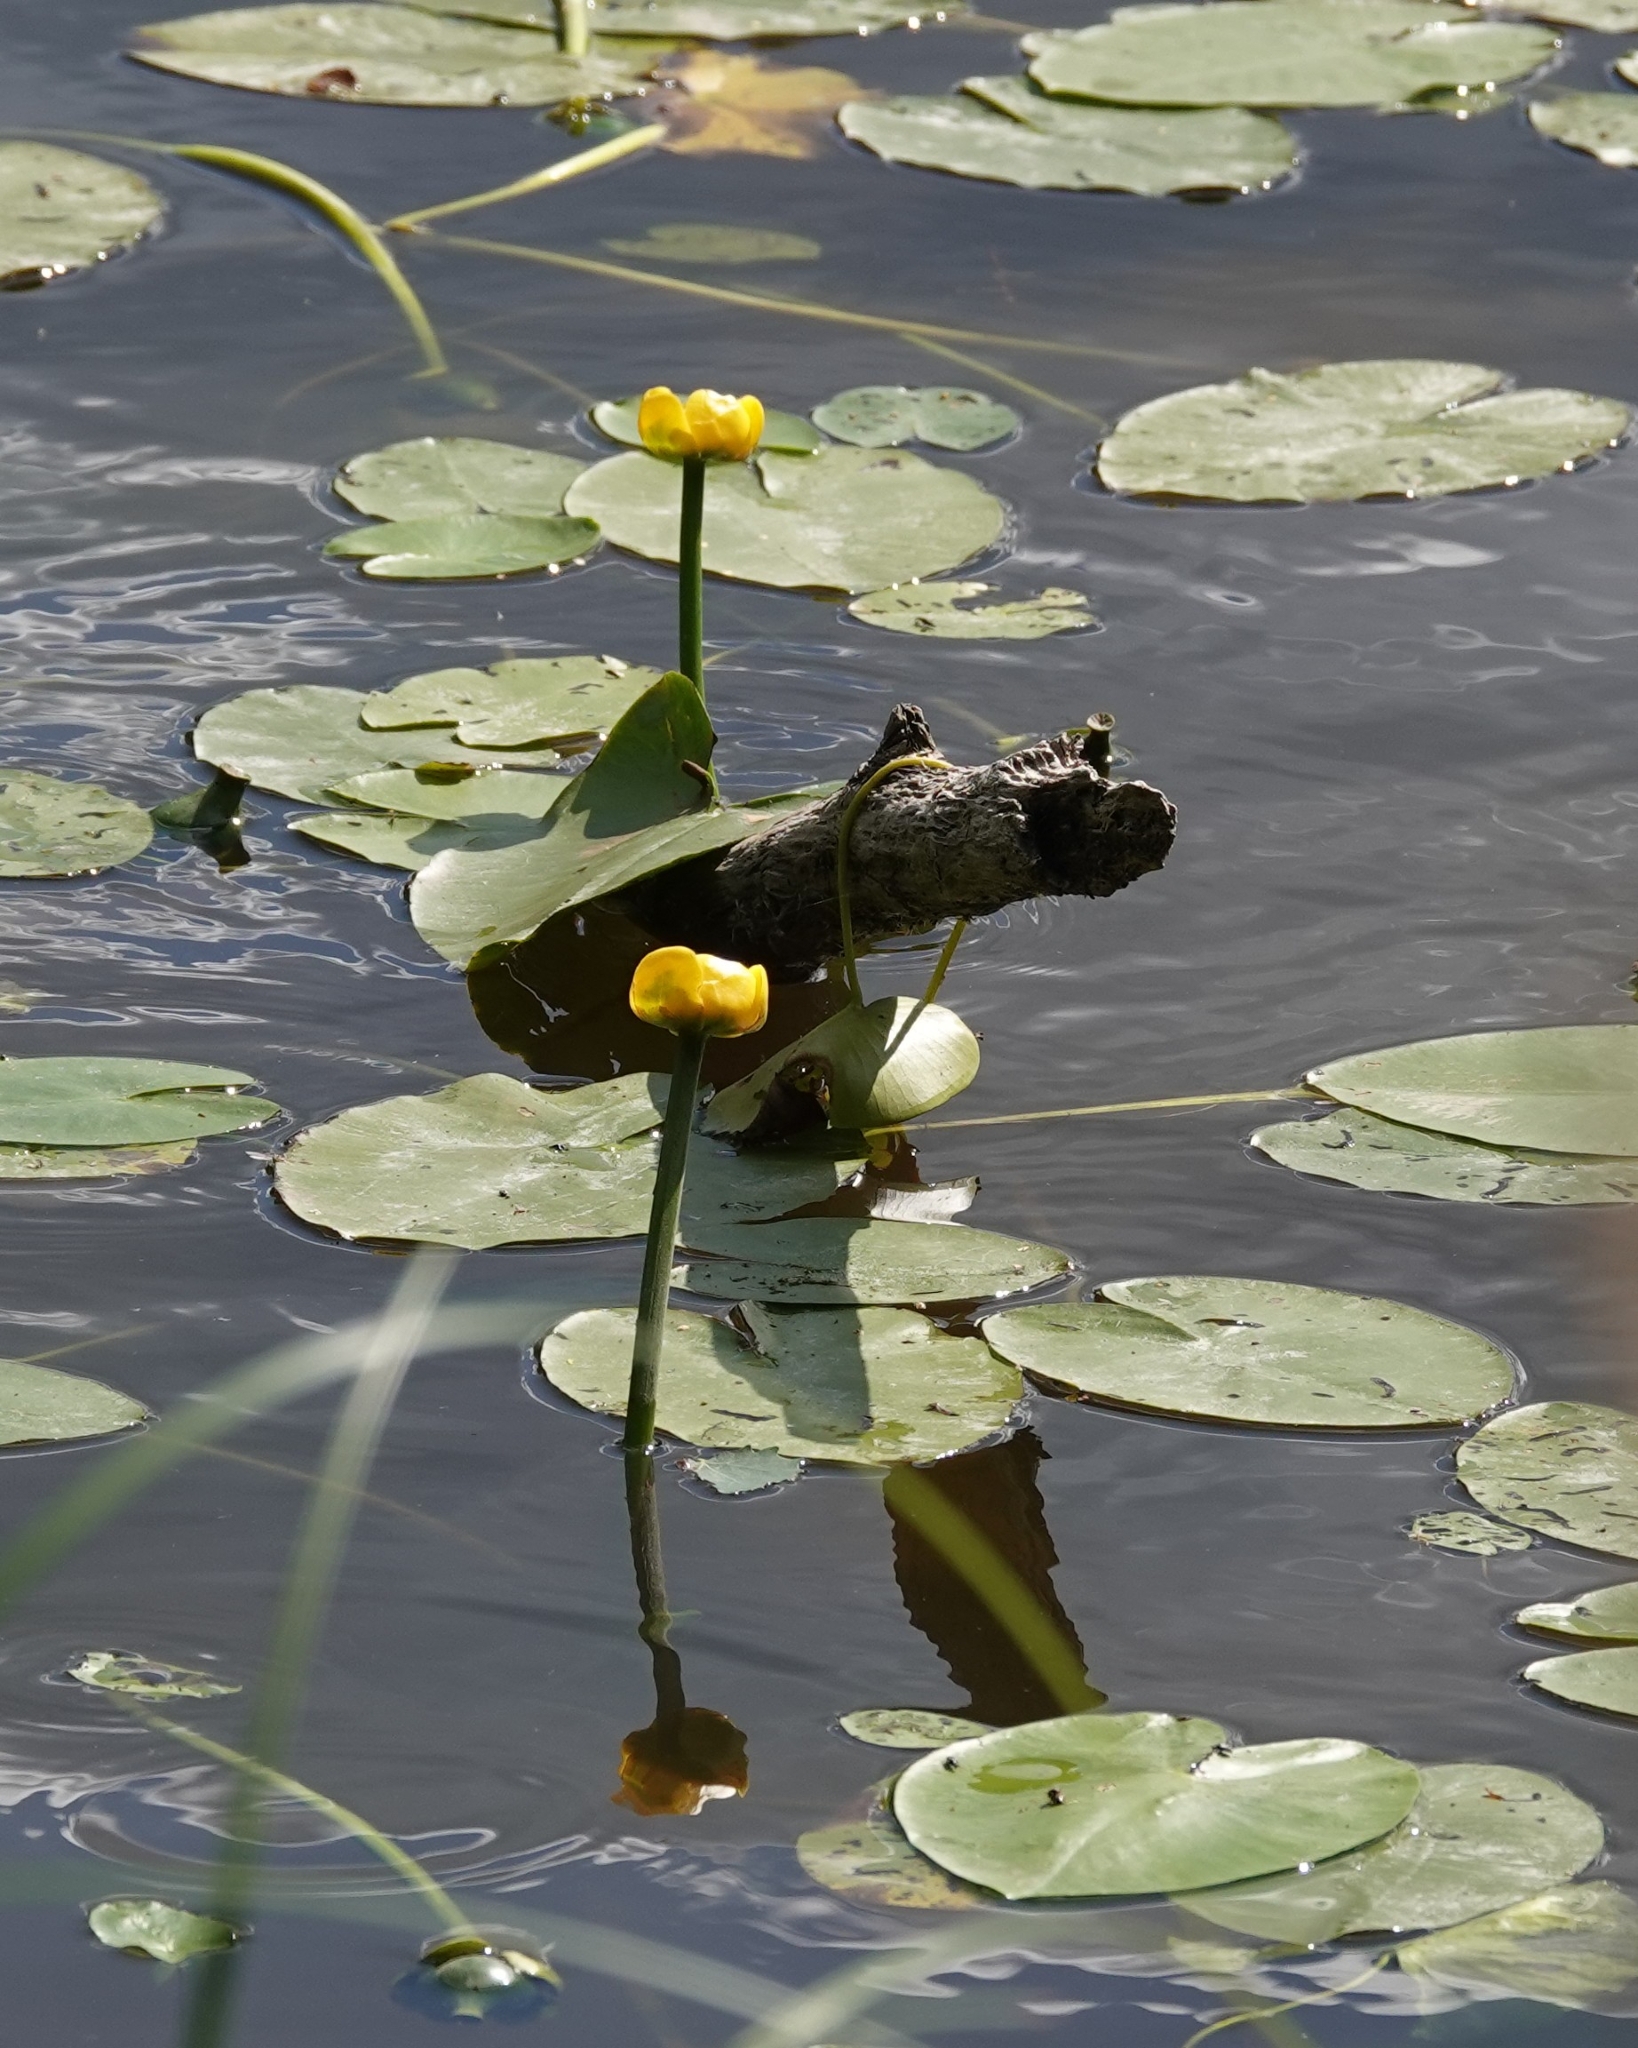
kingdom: Plantae
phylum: Tracheophyta
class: Magnoliopsida
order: Nymphaeales
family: Nymphaeaceae
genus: Nuphar
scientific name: Nuphar lutea
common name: Yellow water-lily
